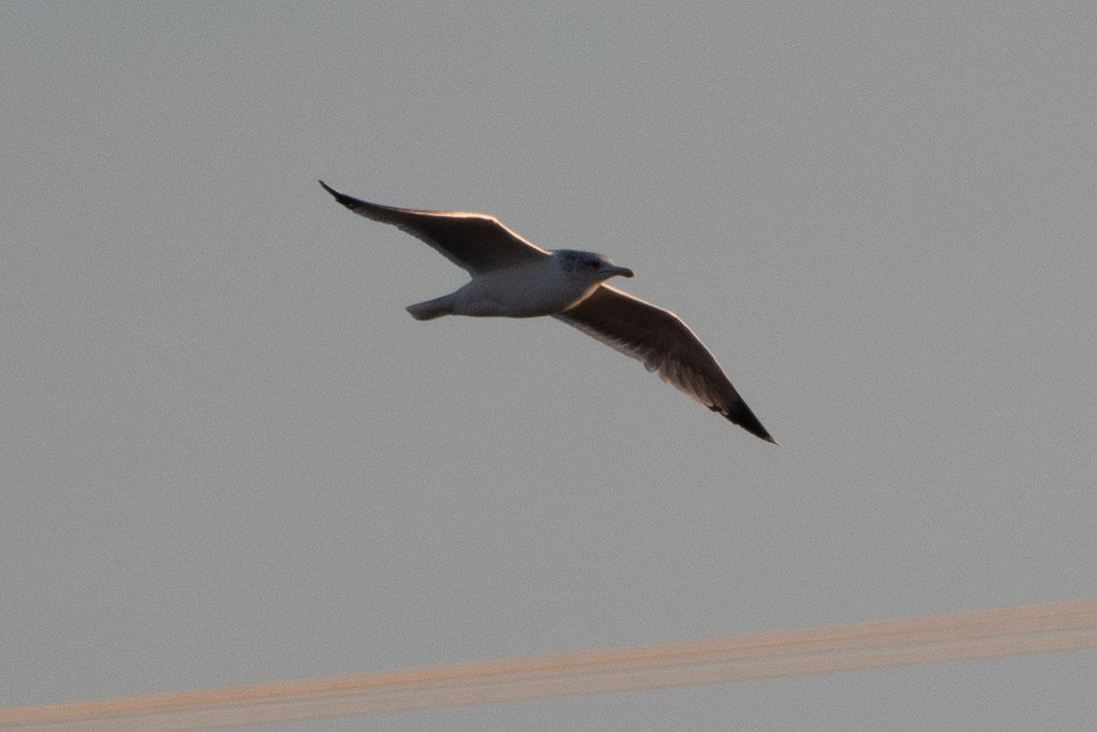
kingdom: Animalia
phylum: Chordata
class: Aves
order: Charadriiformes
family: Laridae
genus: Larus
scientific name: Larus californicus
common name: California gull
